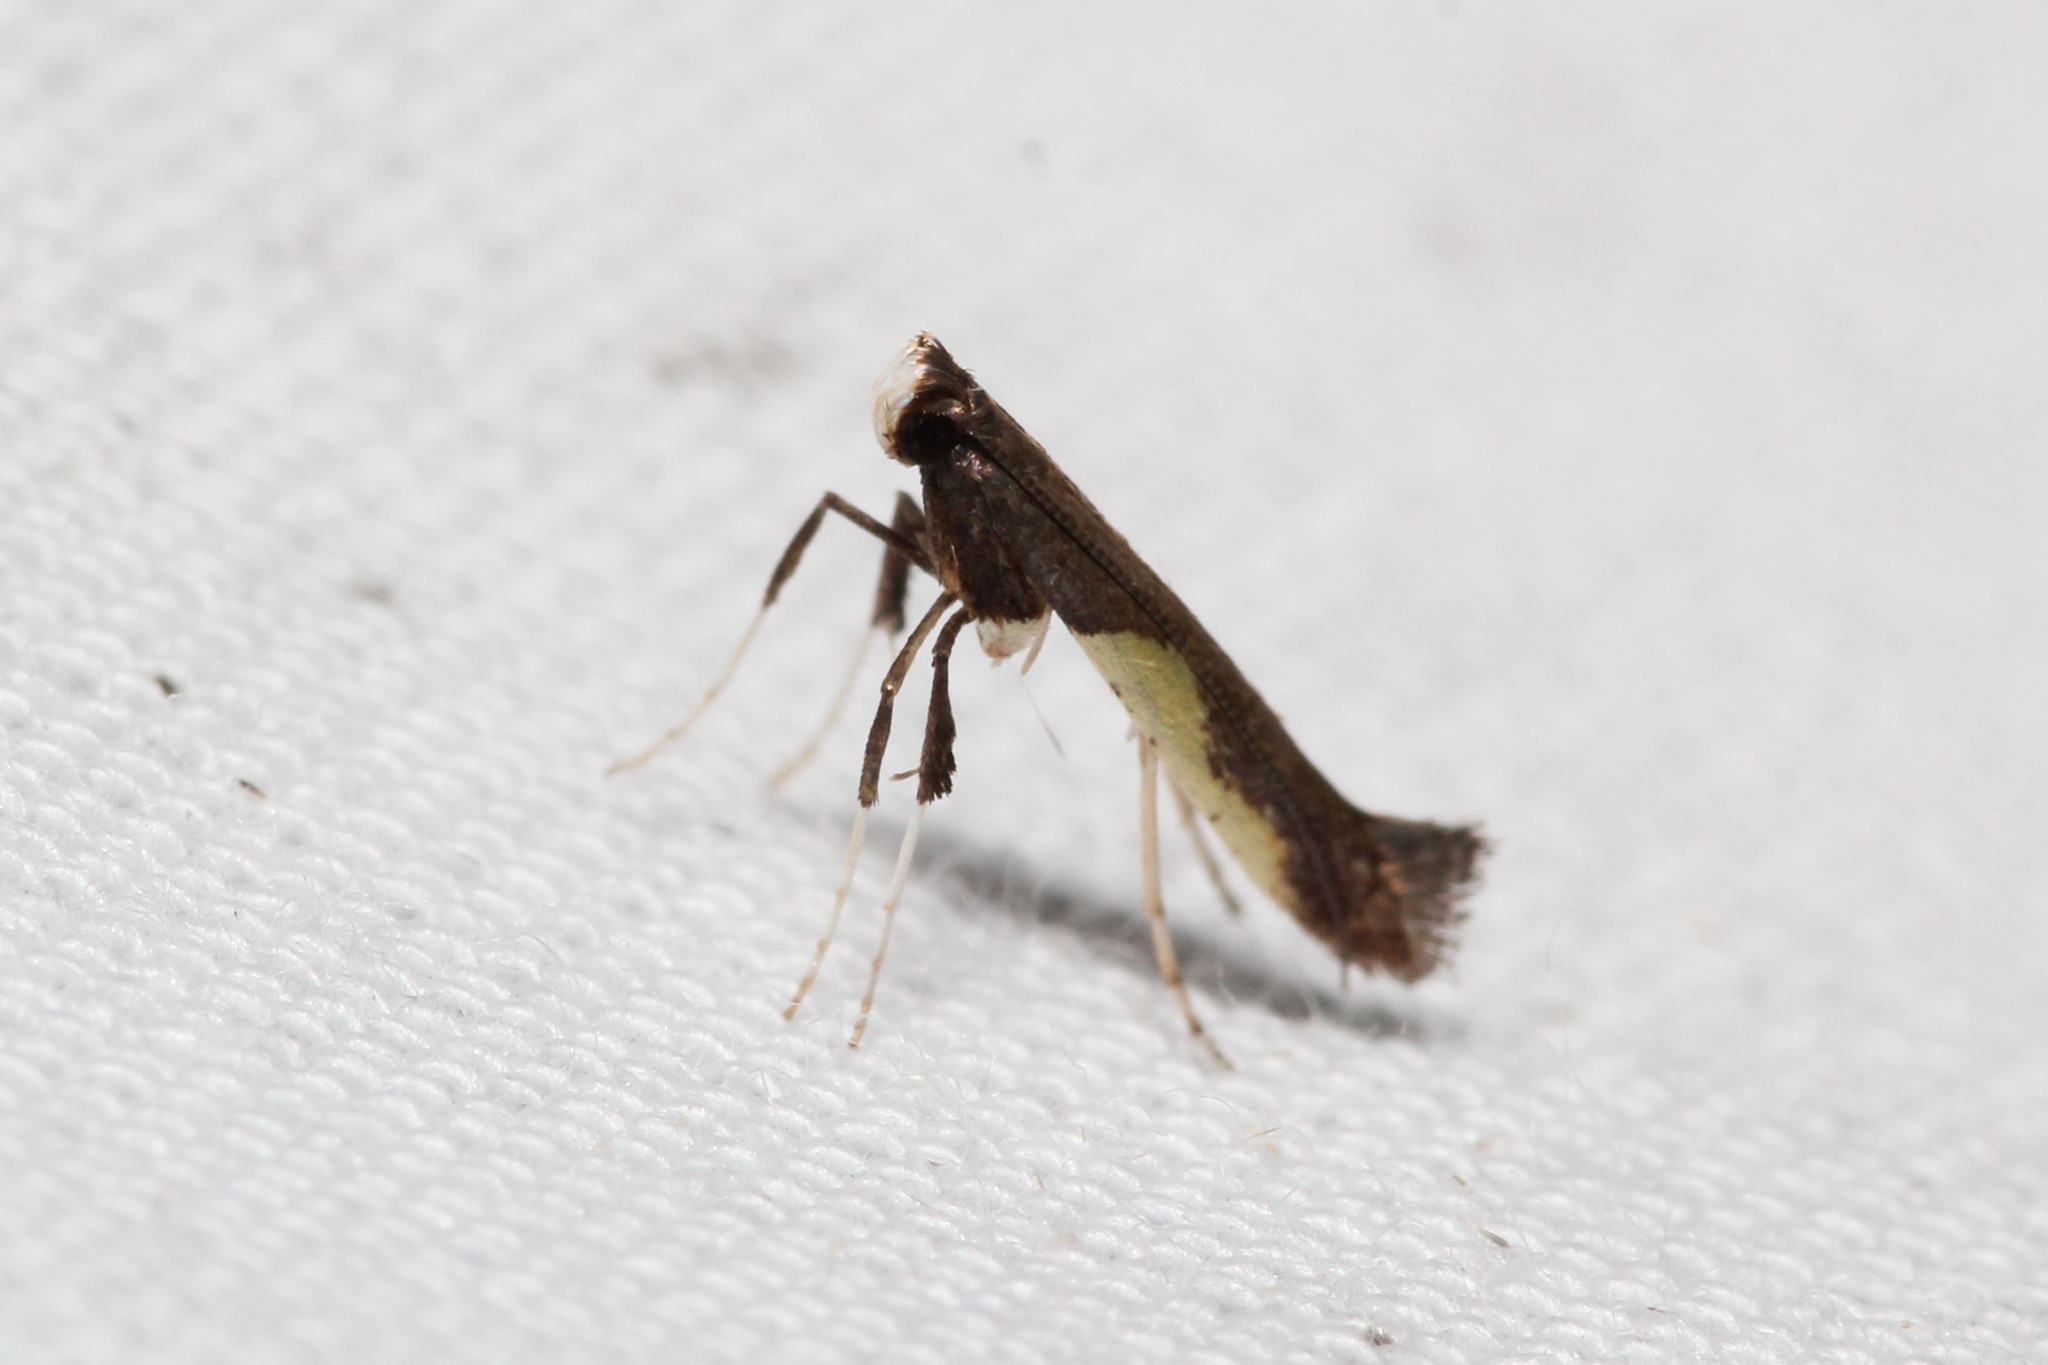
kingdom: Animalia
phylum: Arthropoda
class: Insecta
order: Lepidoptera
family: Gracillariidae
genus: Caloptilia
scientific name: Caloptilia belfragella
